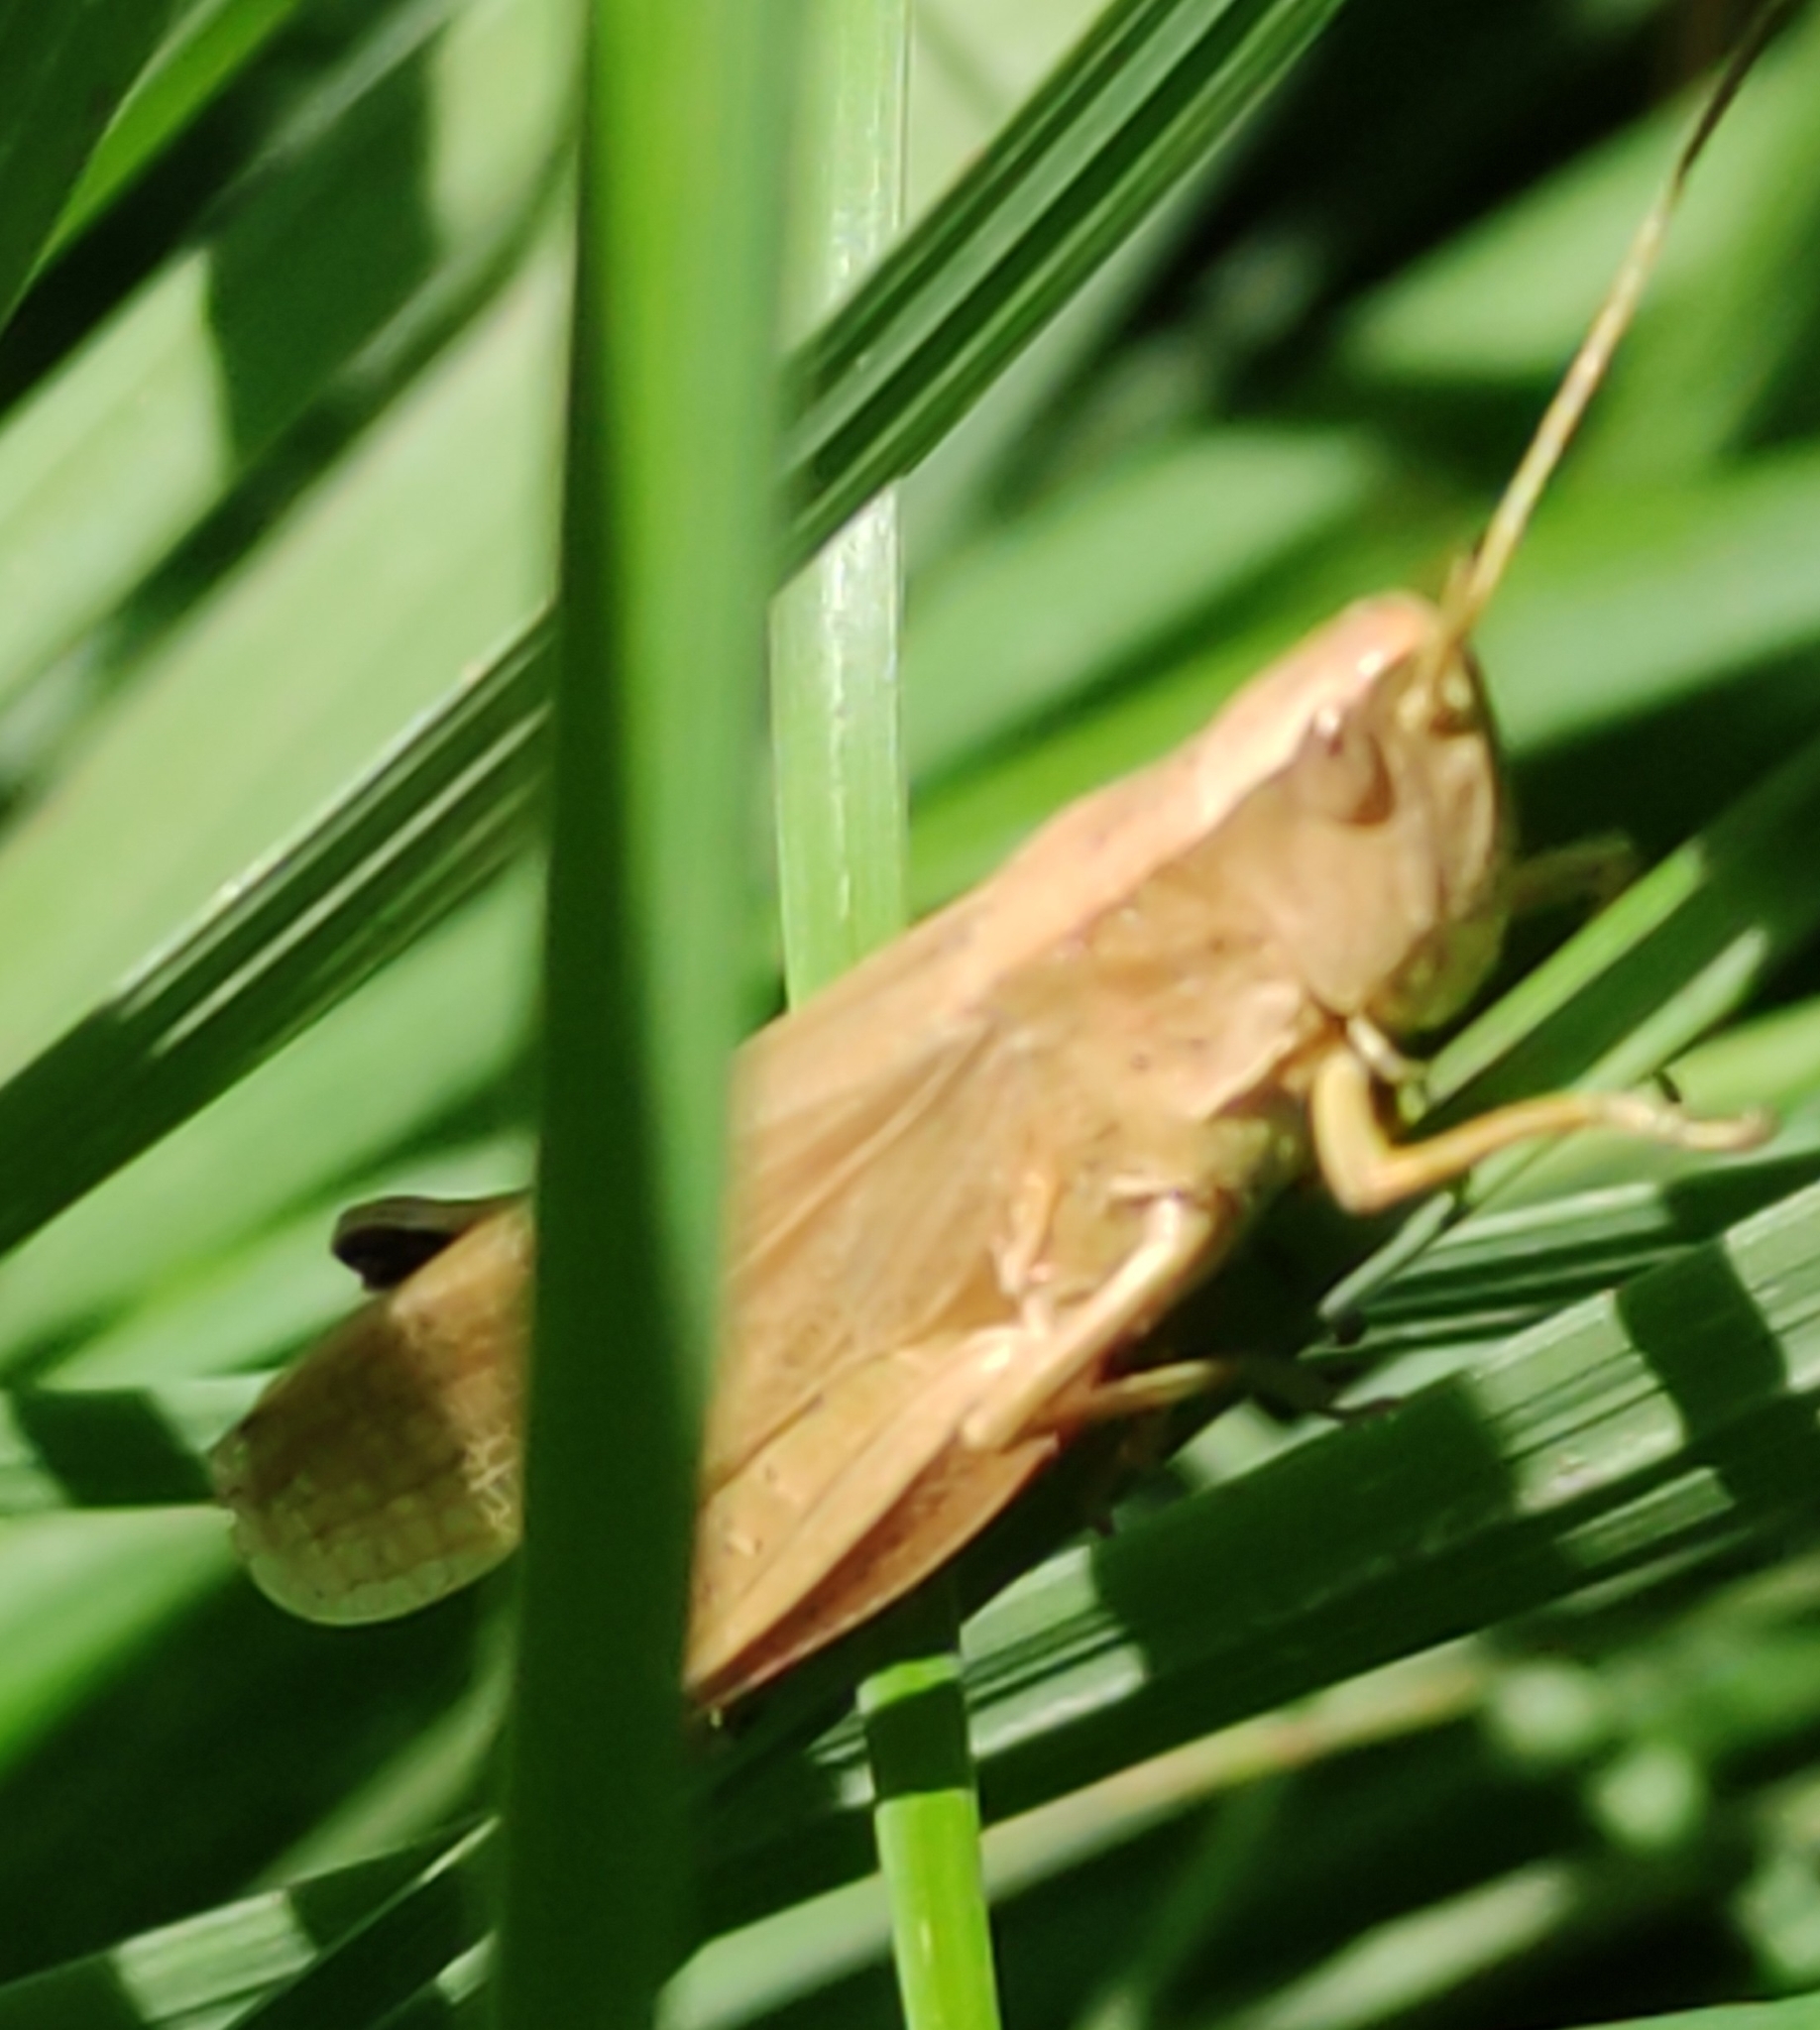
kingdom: Animalia
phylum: Arthropoda
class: Insecta
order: Orthoptera
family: Acrididae
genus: Chrysochraon
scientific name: Chrysochraon dispar
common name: Large gold grasshopper
